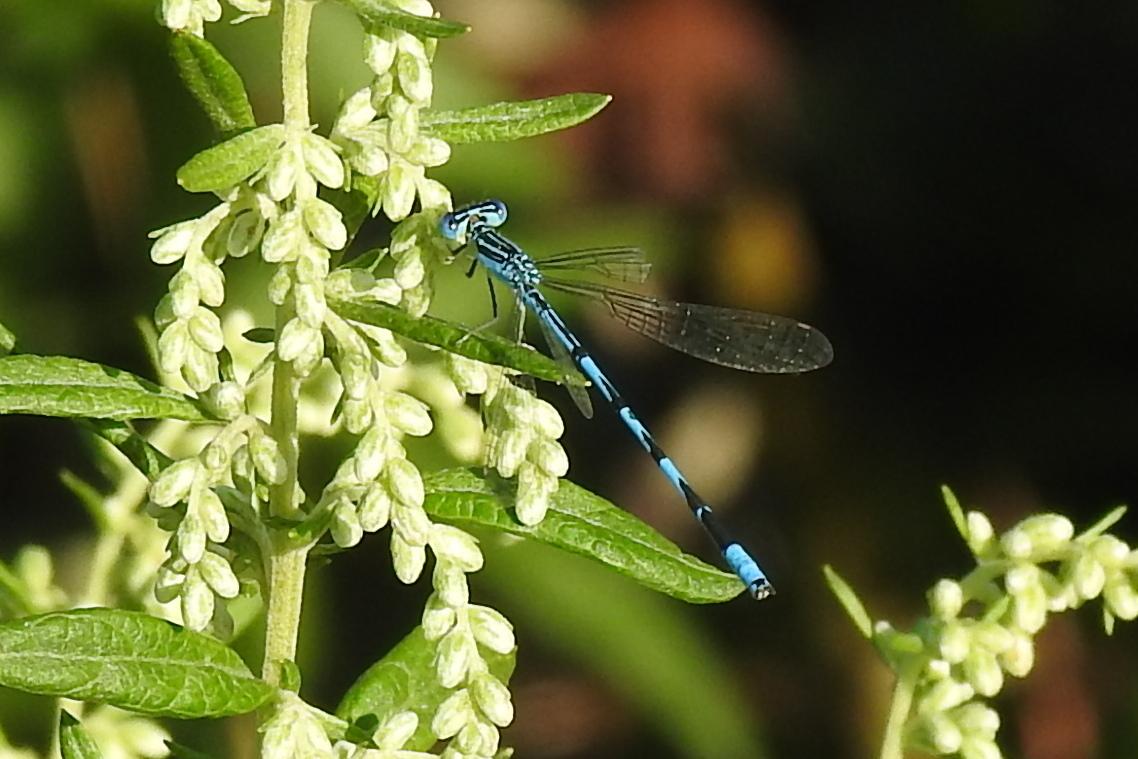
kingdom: Animalia
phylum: Arthropoda
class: Insecta
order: Odonata
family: Coenagrionidae
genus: Enallagma
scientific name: Enallagma basidens
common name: Double-striped bluet
